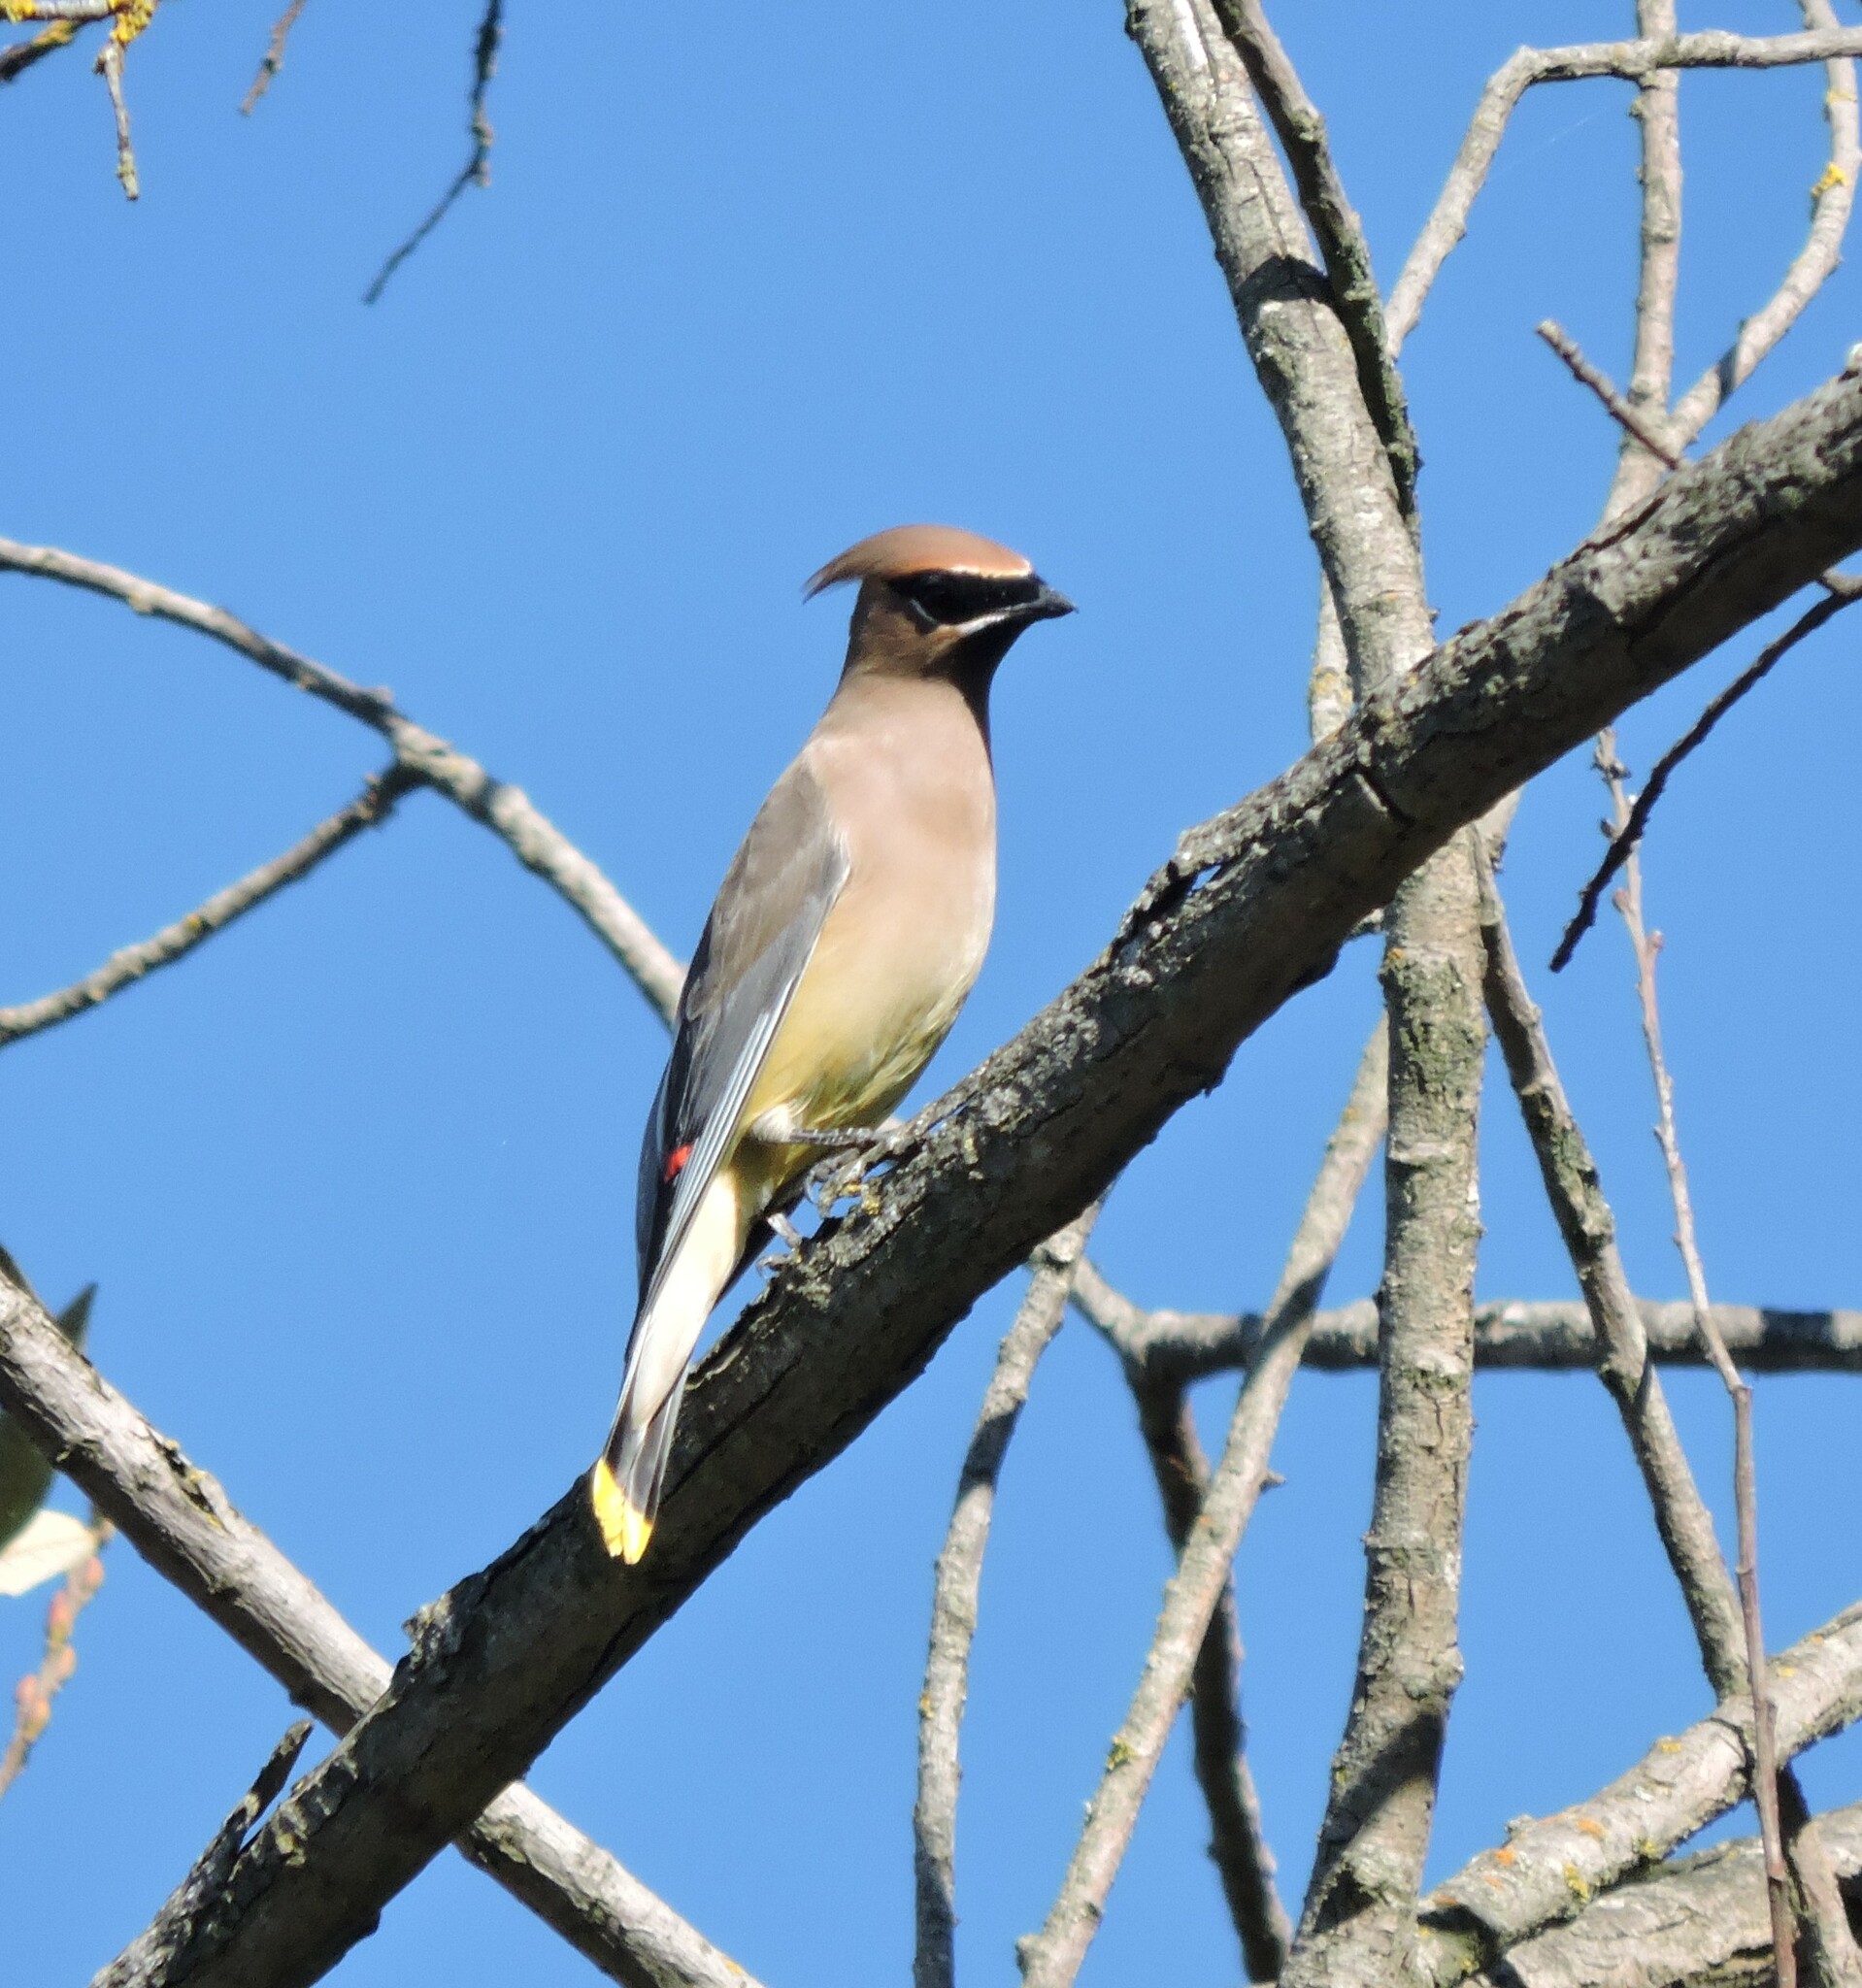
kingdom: Animalia
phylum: Chordata
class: Aves
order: Passeriformes
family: Bombycillidae
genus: Bombycilla
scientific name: Bombycilla cedrorum
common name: Cedar waxwing
